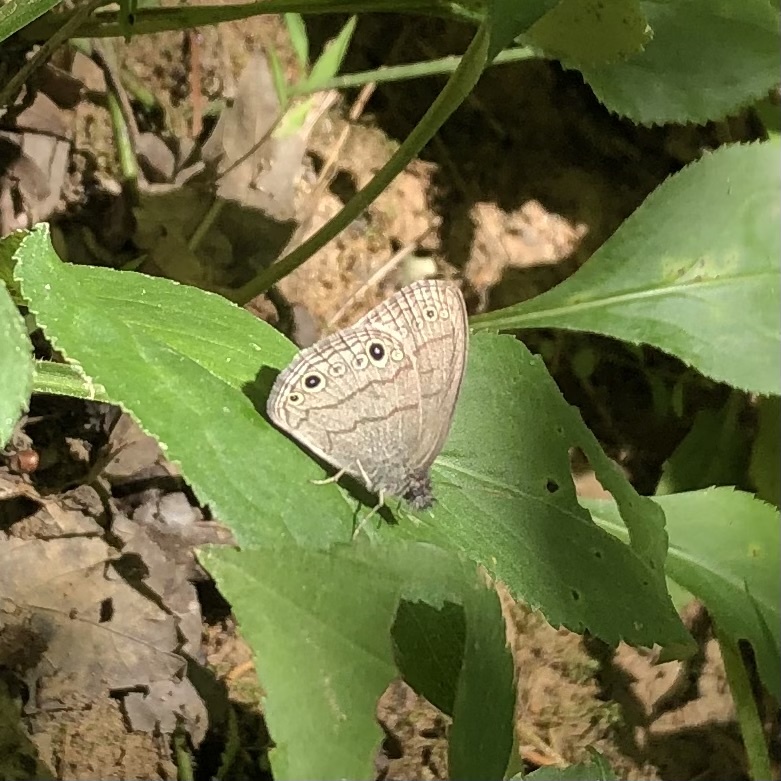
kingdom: Animalia
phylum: Arthropoda
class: Insecta
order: Lepidoptera
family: Nymphalidae
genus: Hermeuptychia
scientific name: Hermeuptychia hermes
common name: Hermes satyr
